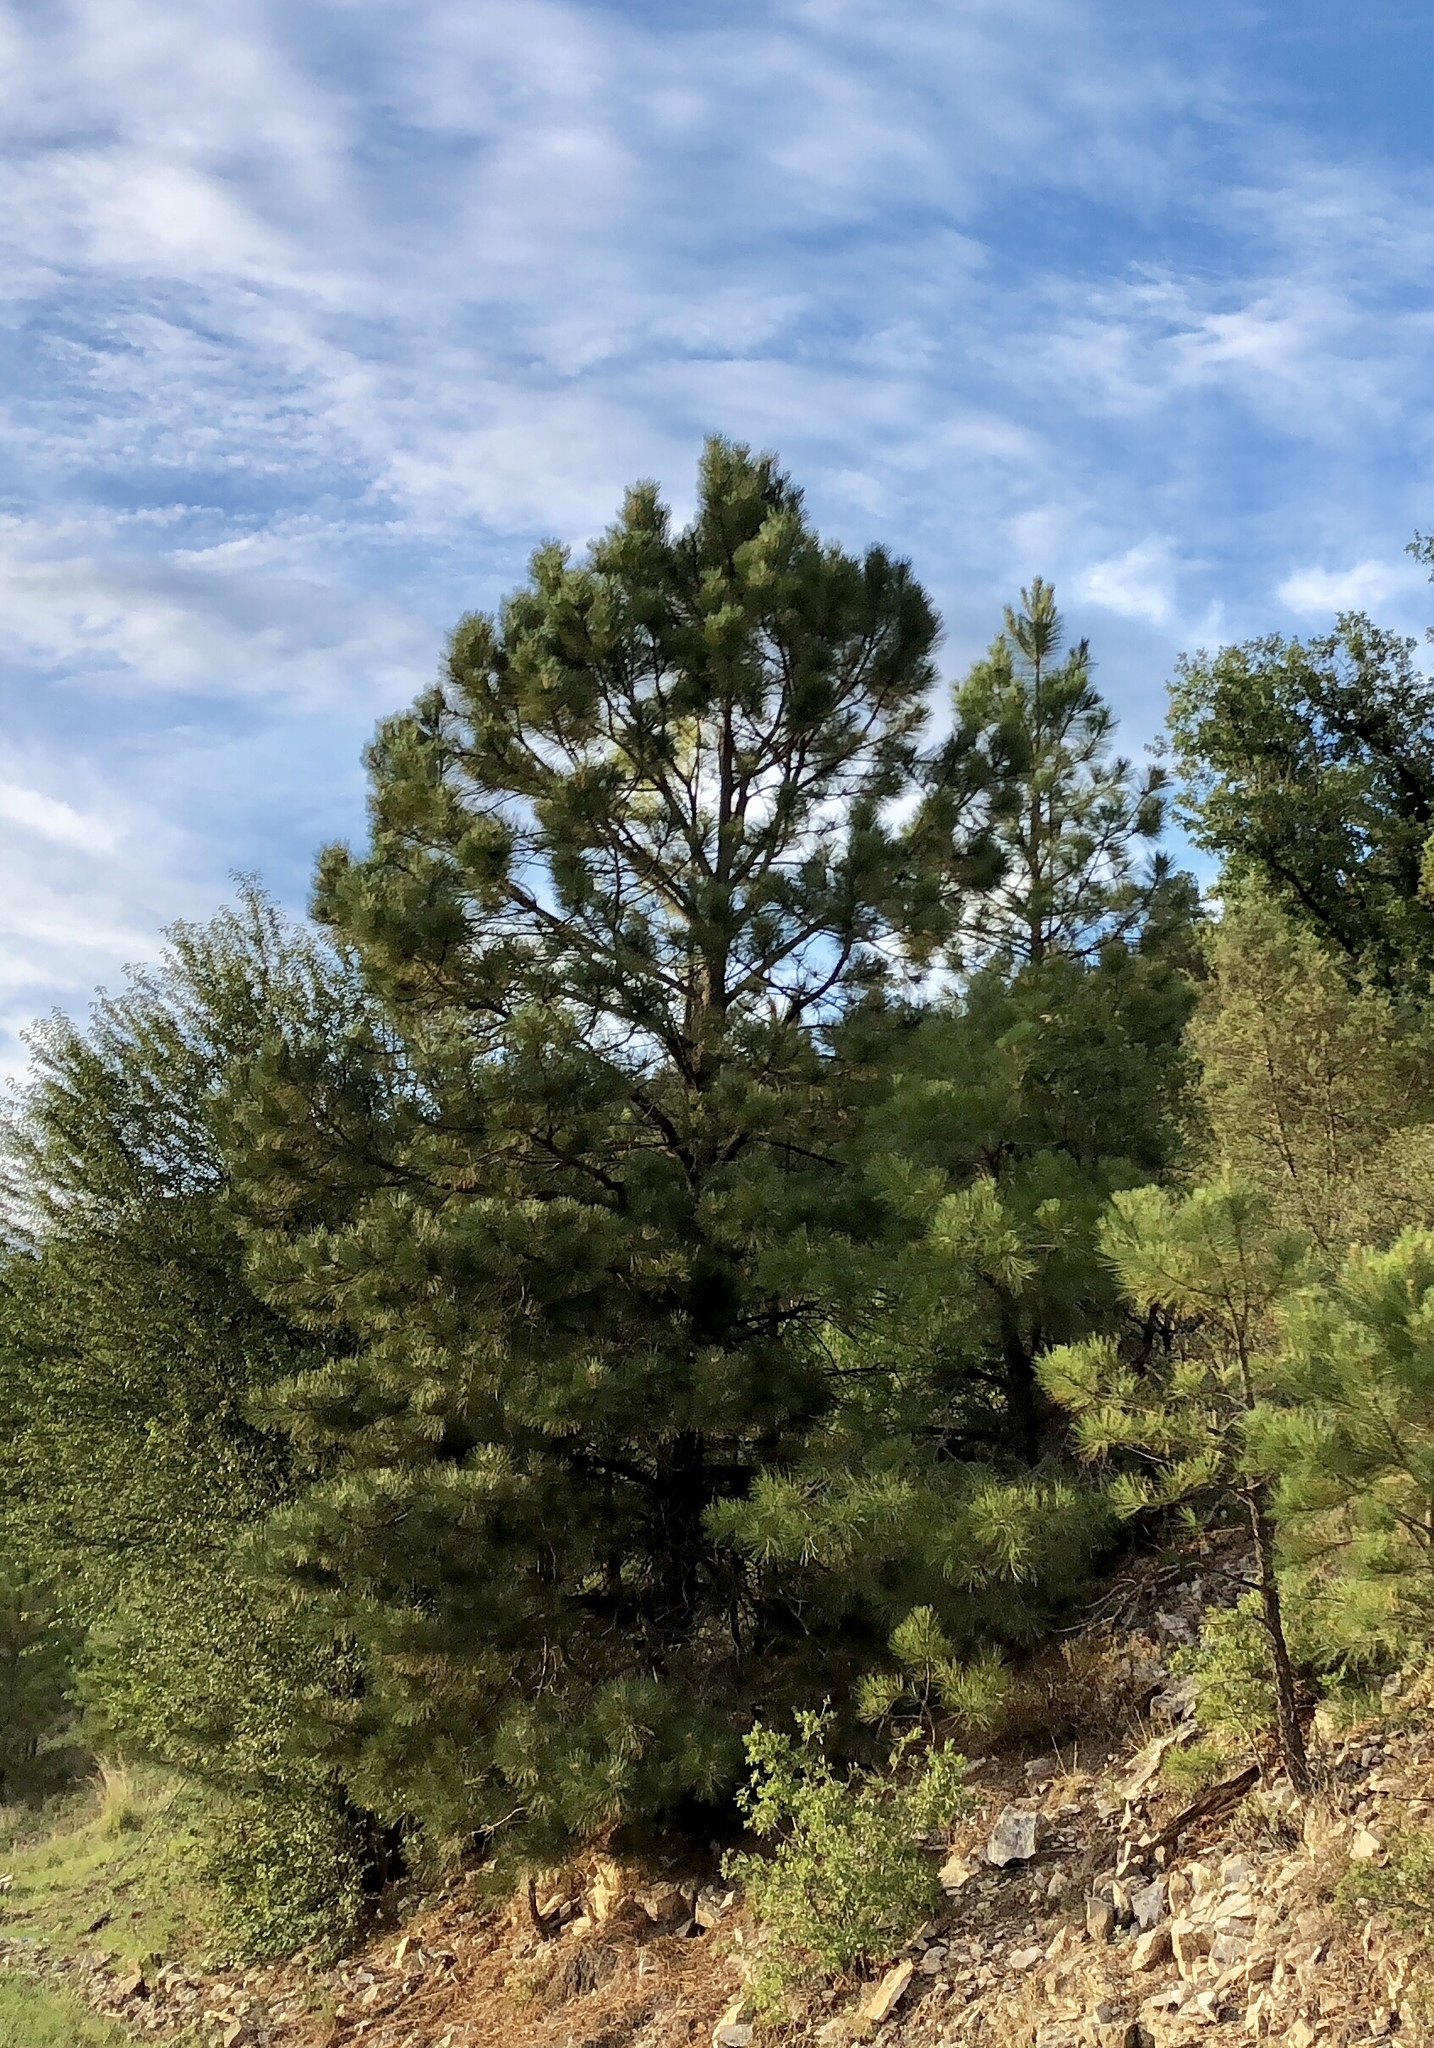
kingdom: Plantae
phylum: Tracheophyta
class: Pinopsida
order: Pinales
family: Pinaceae
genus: Pinus
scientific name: Pinus ponderosa
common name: Western yellow-pine
